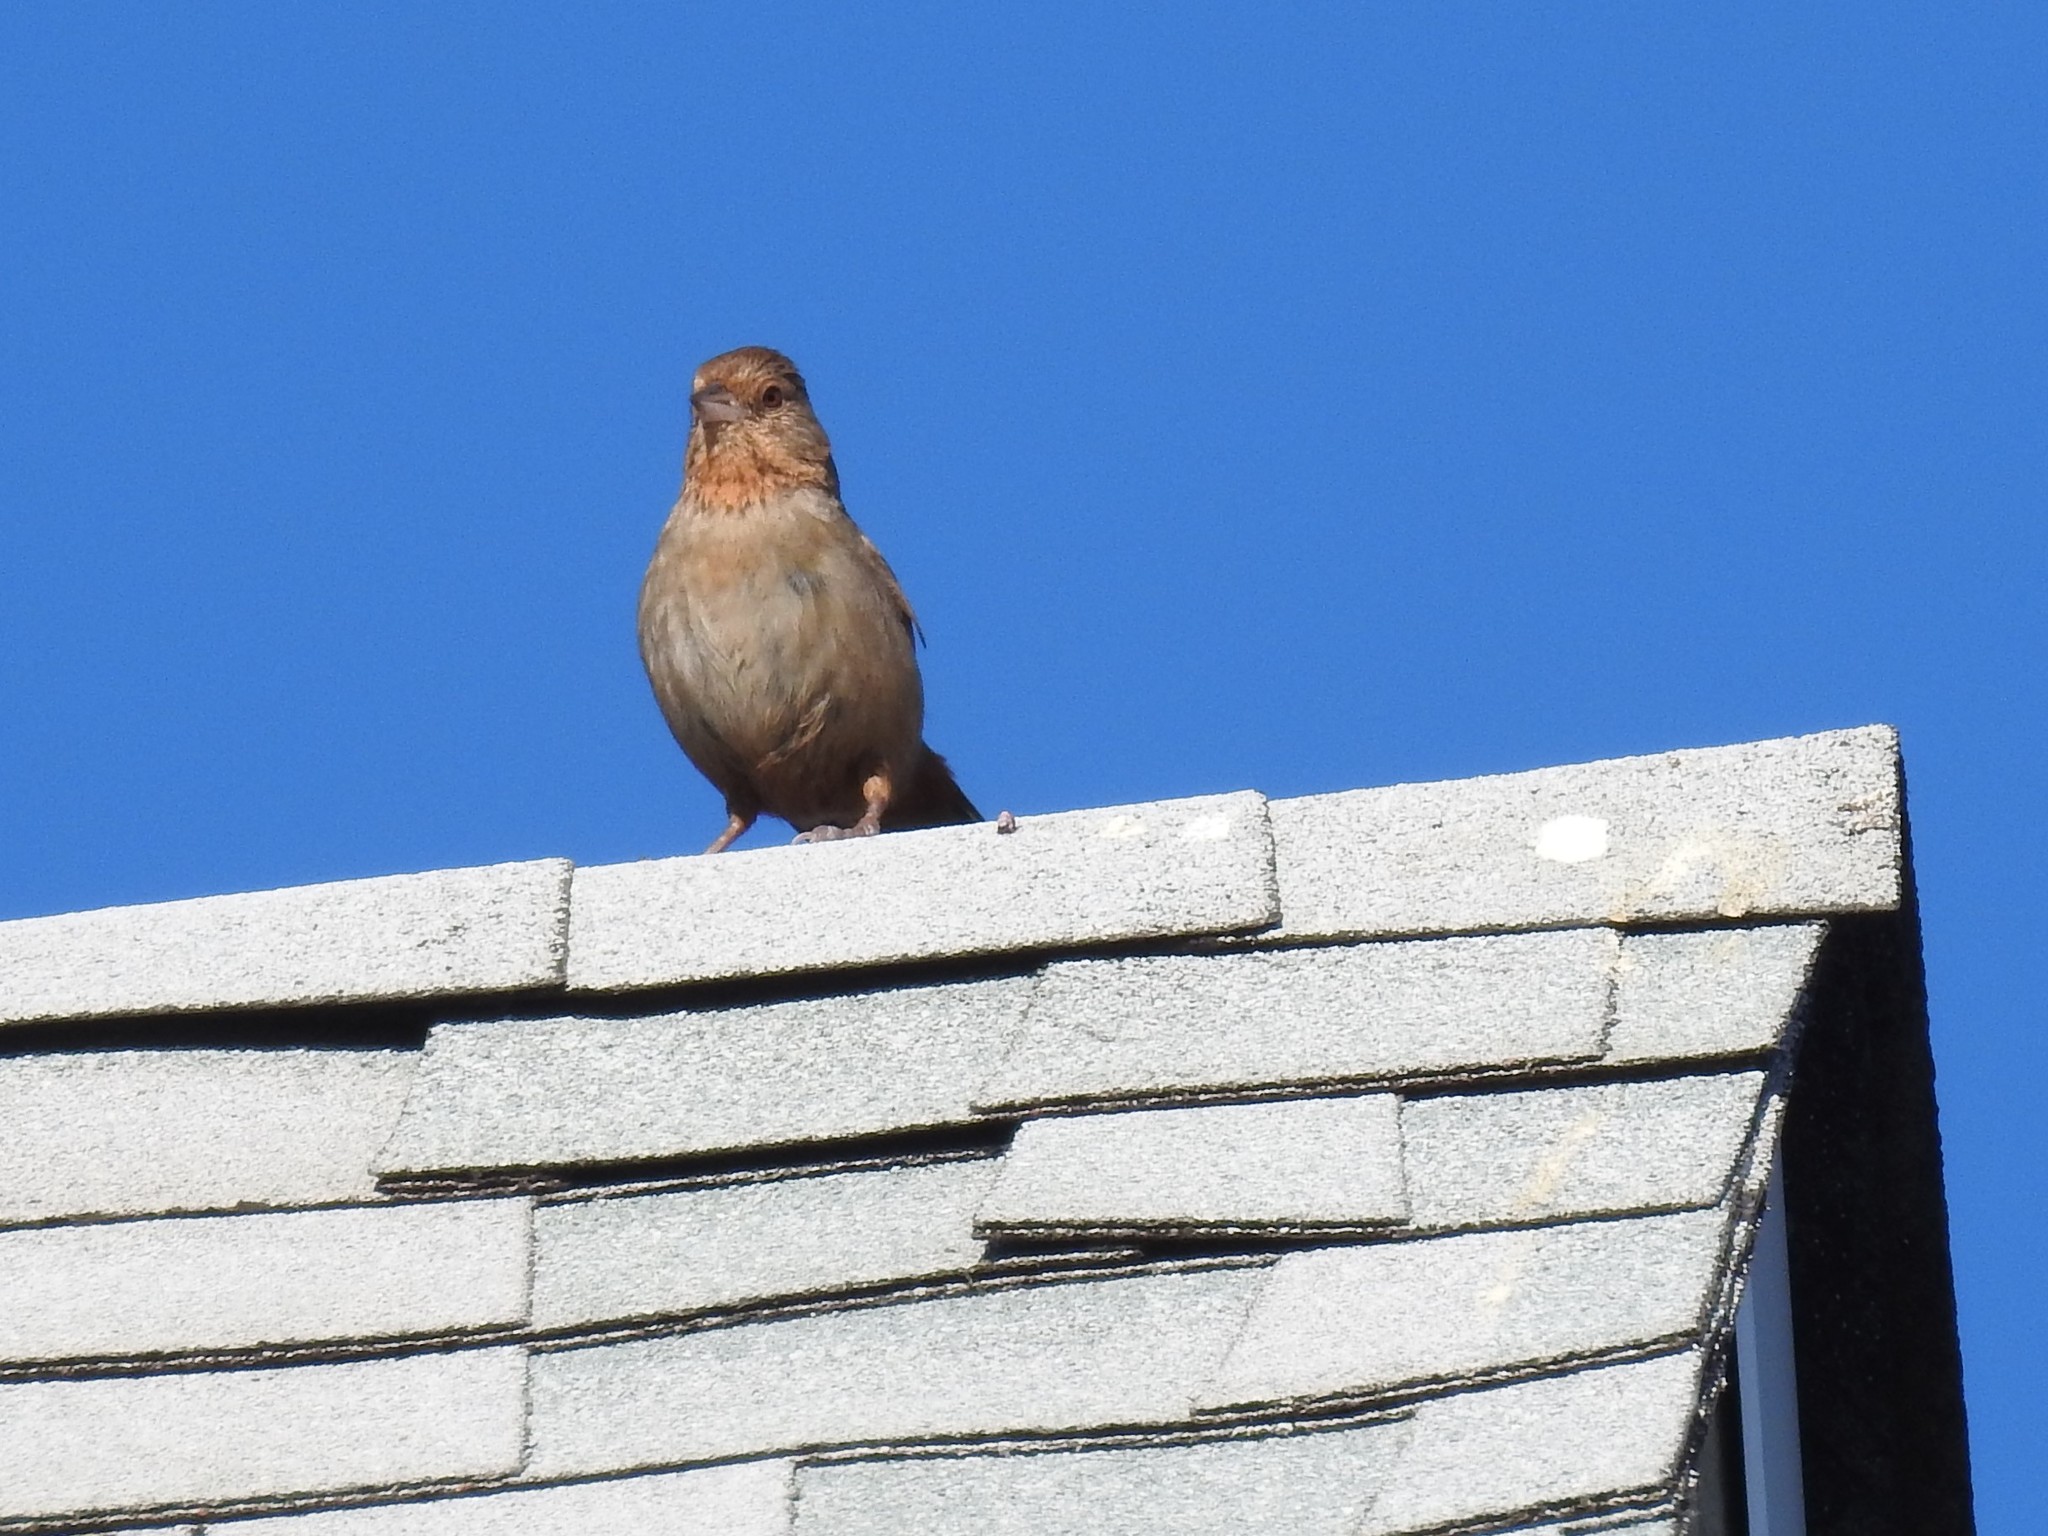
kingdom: Animalia
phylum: Chordata
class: Aves
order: Passeriformes
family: Passerellidae
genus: Melozone
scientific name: Melozone crissalis
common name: California towhee
